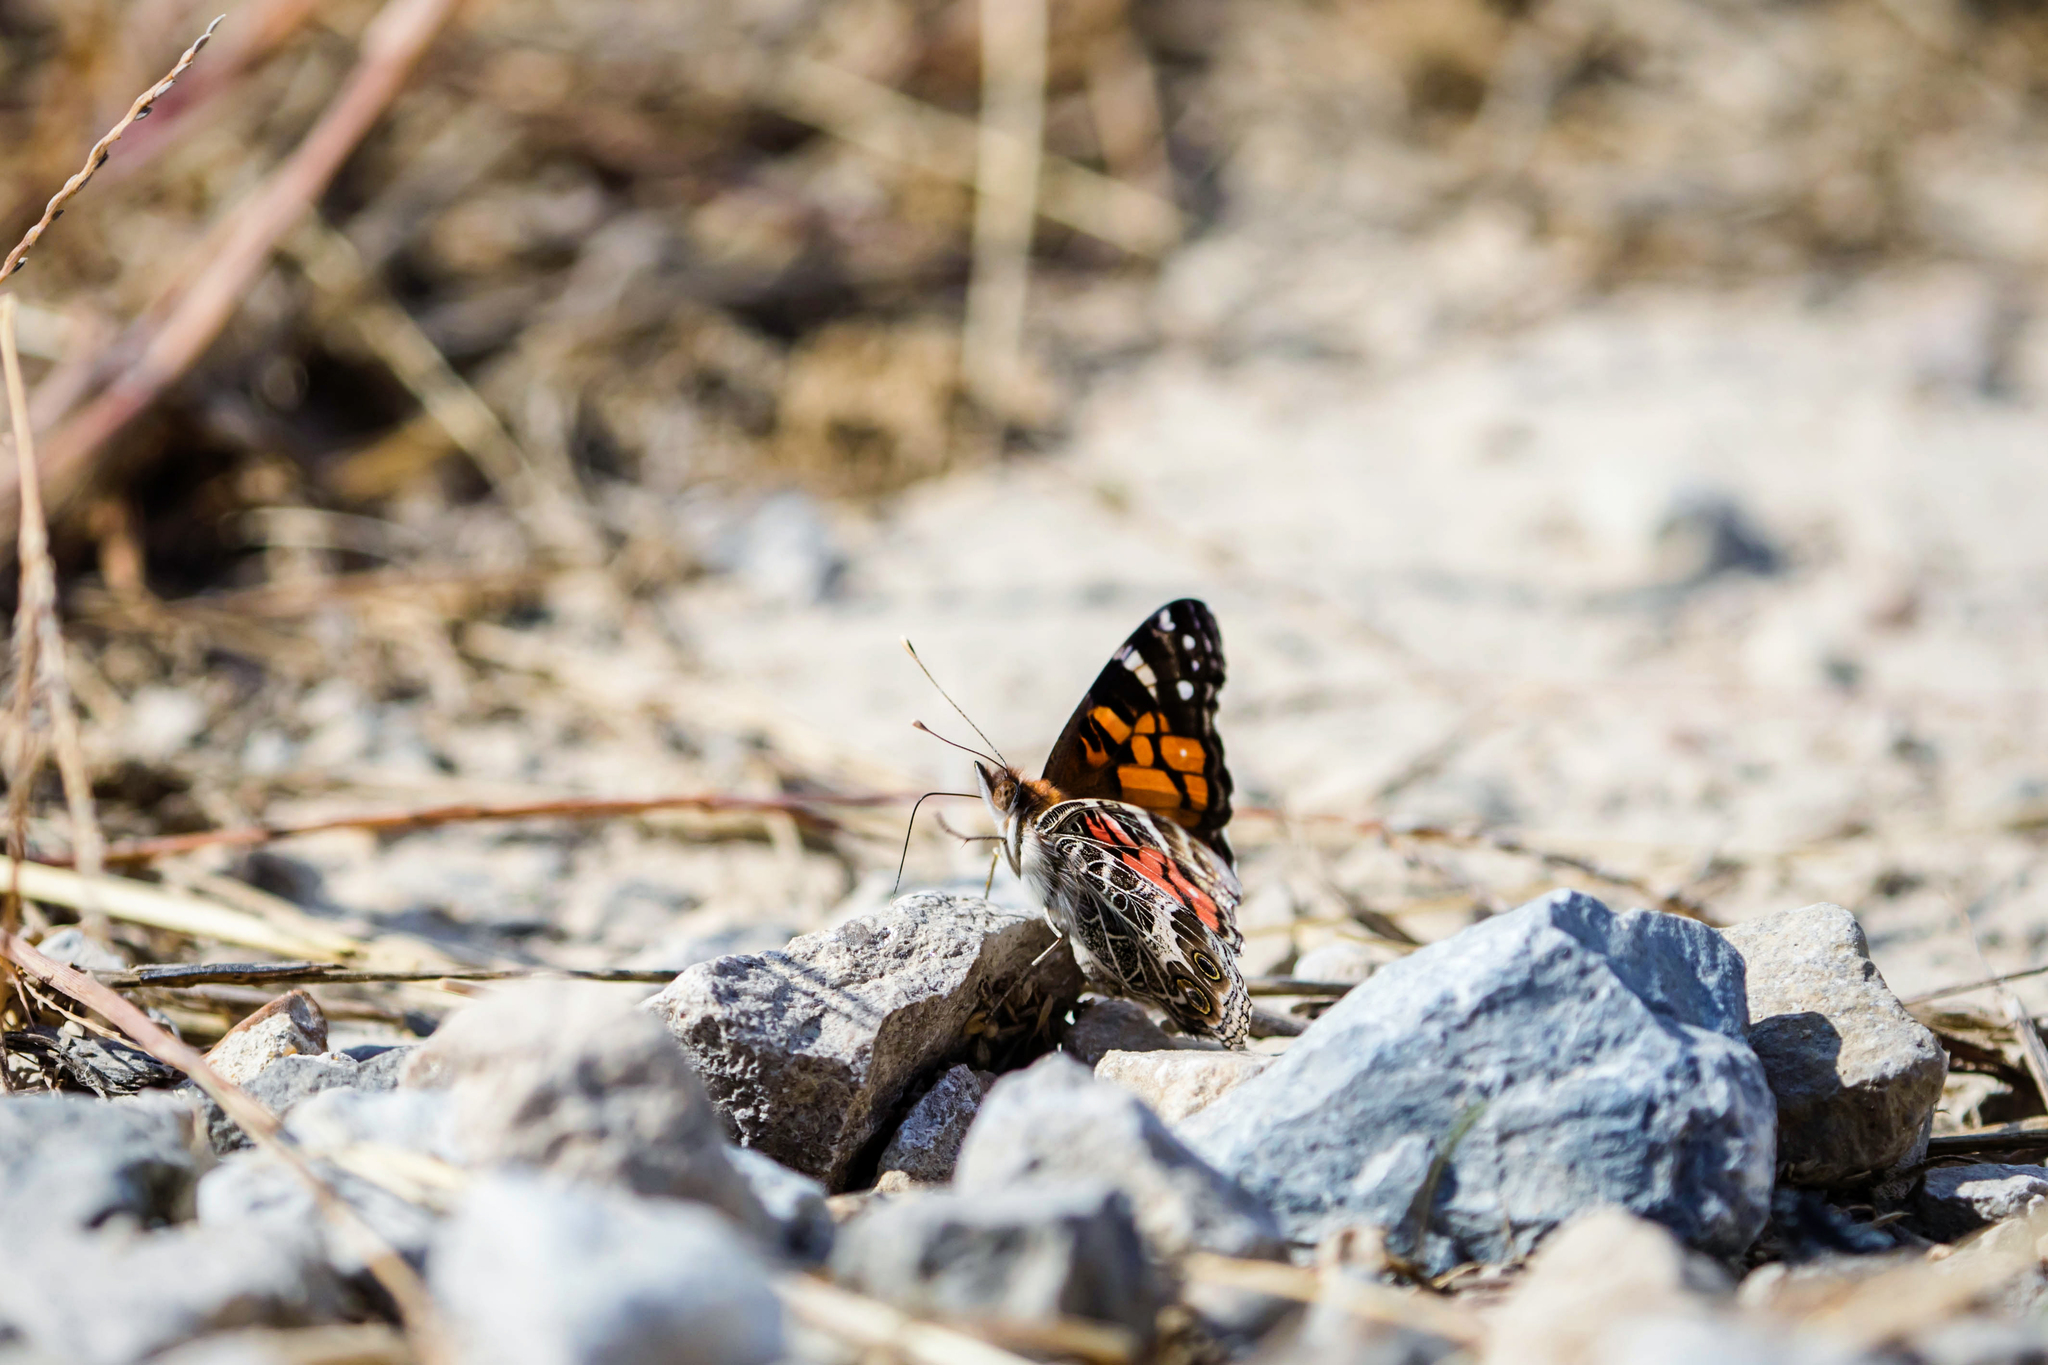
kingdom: Animalia
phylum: Arthropoda
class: Insecta
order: Lepidoptera
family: Nymphalidae
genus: Vanessa
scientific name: Vanessa virginiensis
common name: American lady
